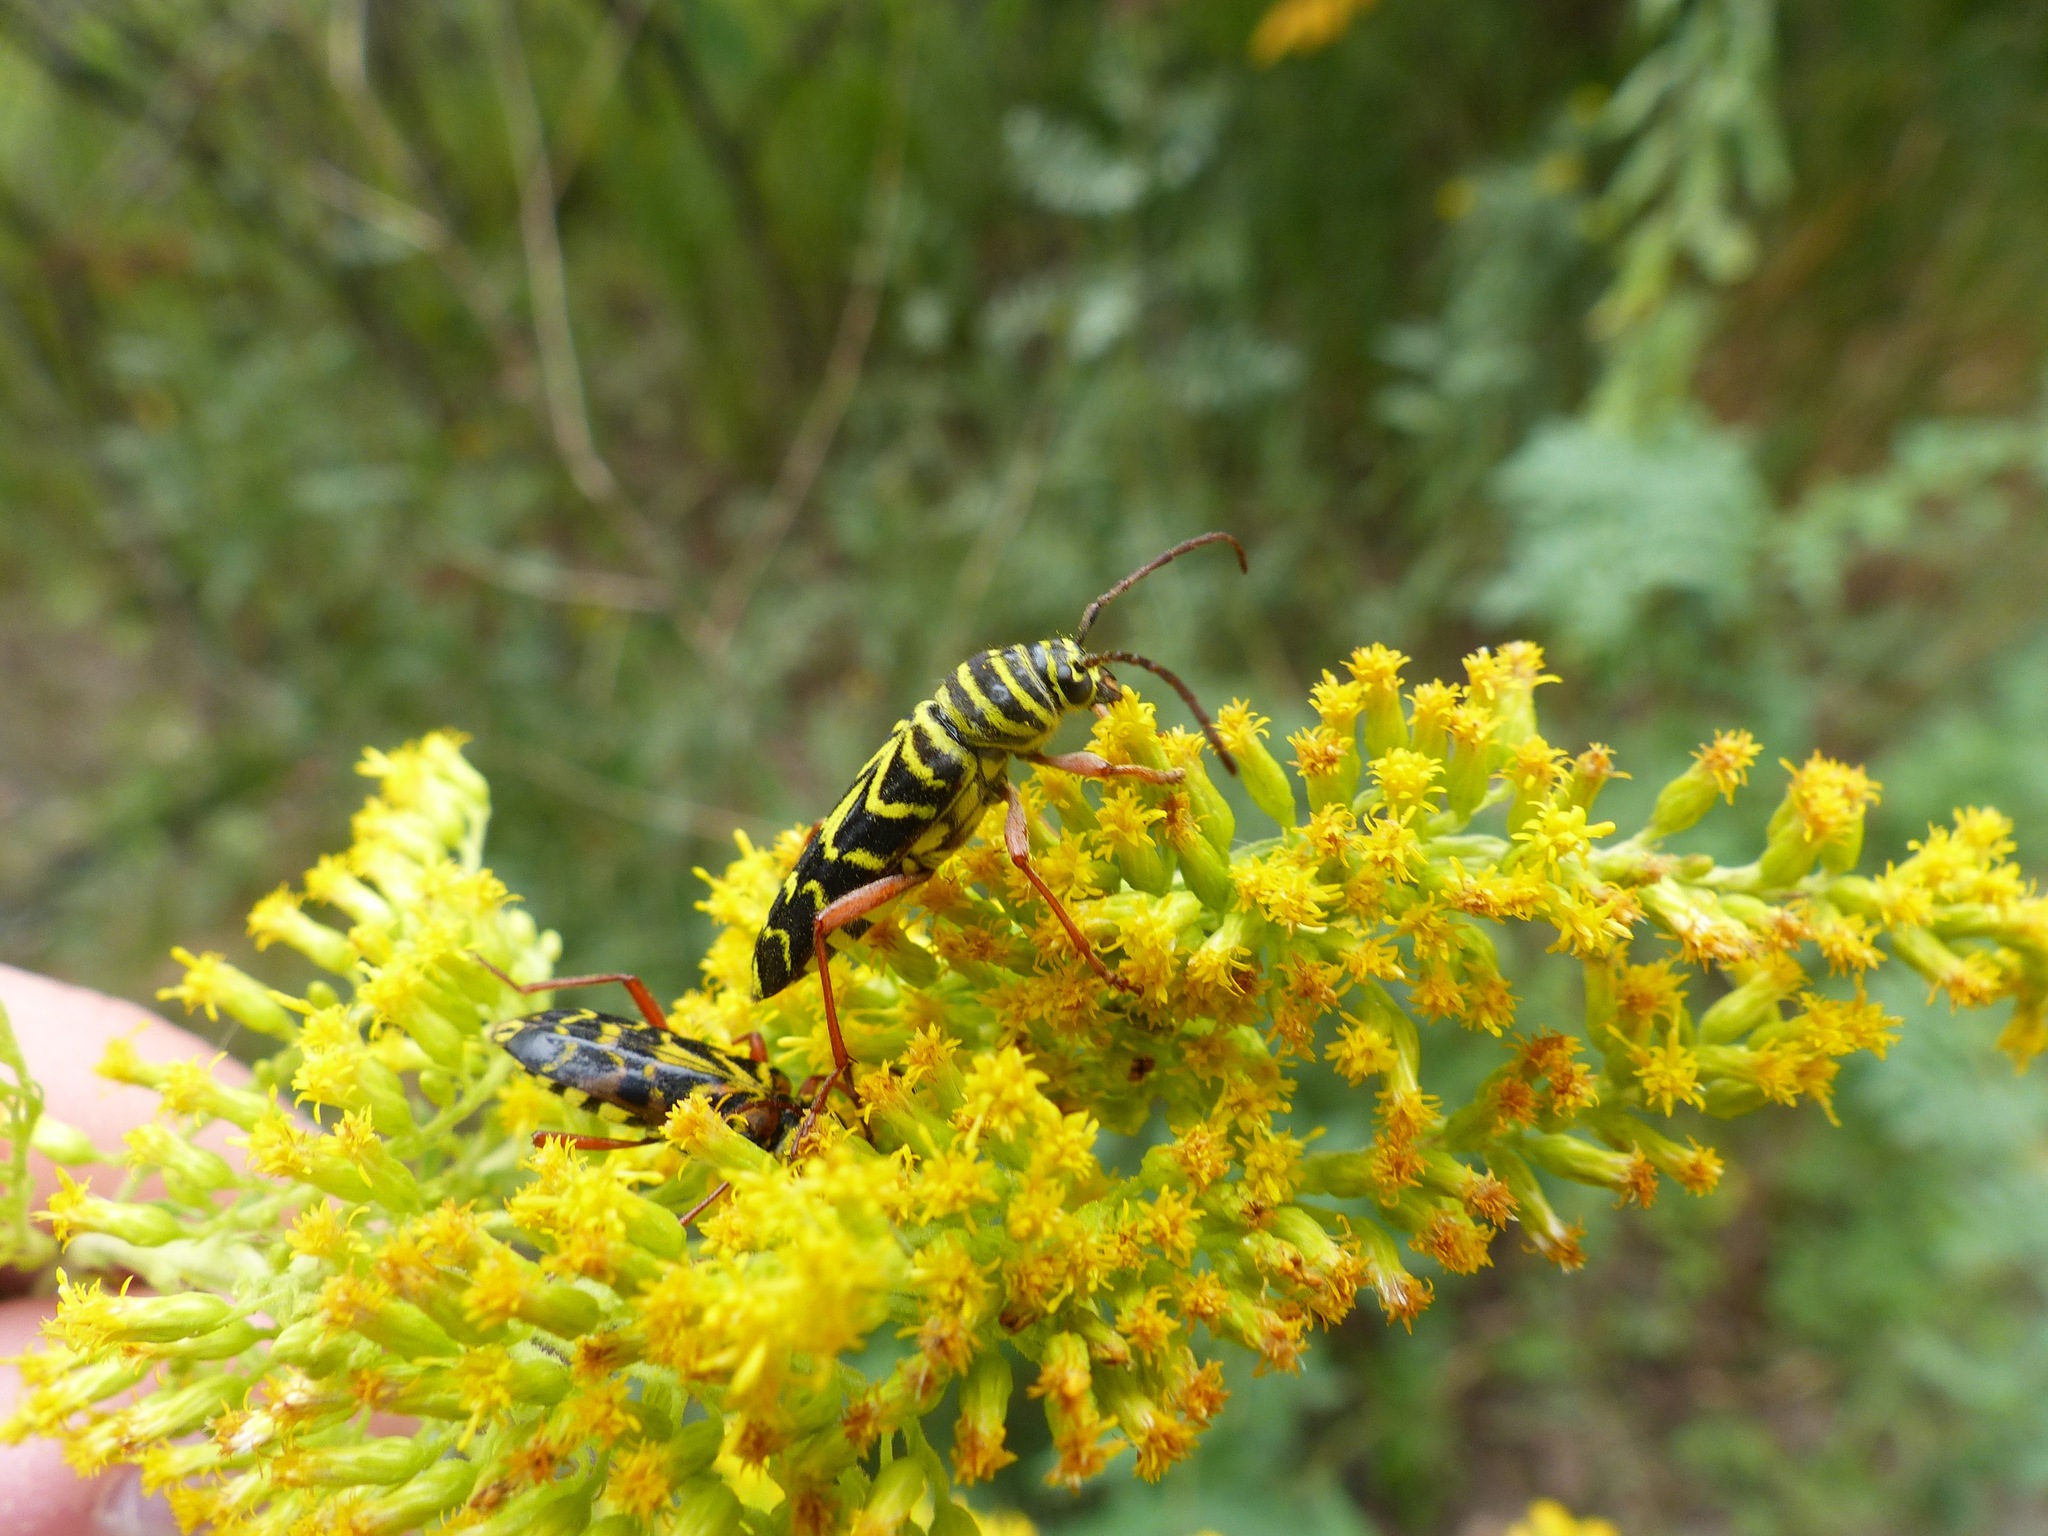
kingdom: Animalia
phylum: Arthropoda
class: Insecta
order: Coleoptera
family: Cerambycidae
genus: Megacyllene
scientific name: Megacyllene robiniae
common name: Locust borer
